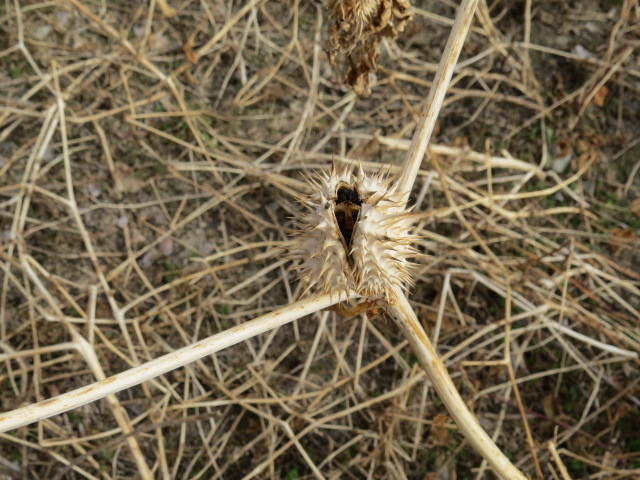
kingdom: Plantae
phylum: Tracheophyta
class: Magnoliopsida
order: Solanales
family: Solanaceae
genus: Datura
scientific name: Datura stramonium
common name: Thorn-apple
